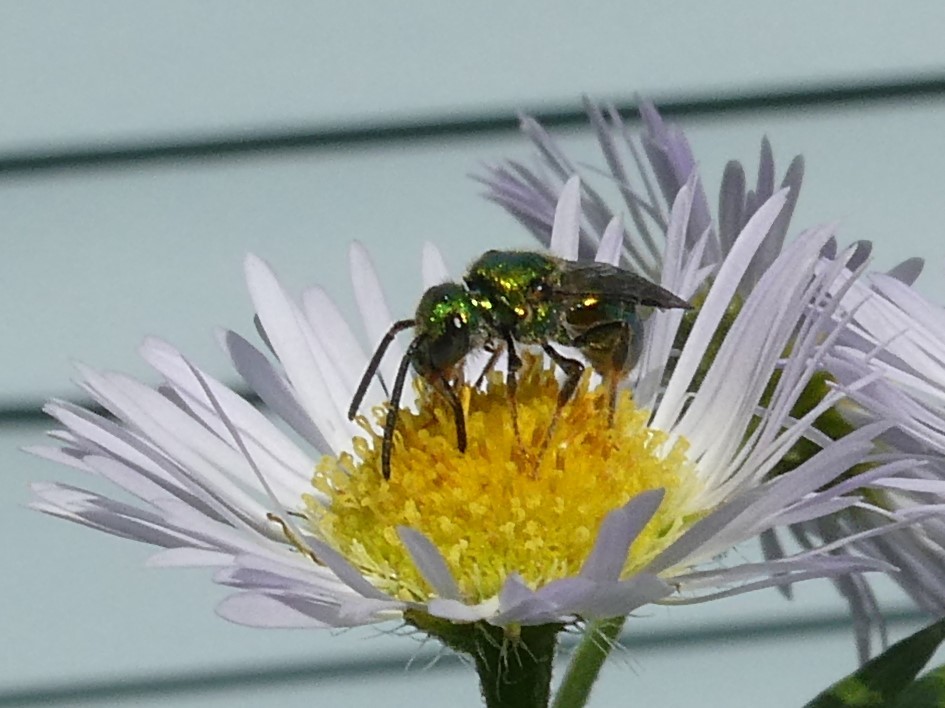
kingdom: Animalia
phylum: Arthropoda
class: Insecta
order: Hymenoptera
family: Halictidae
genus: Augochlora
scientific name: Augochlora pura
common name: Pure green sweat bee
